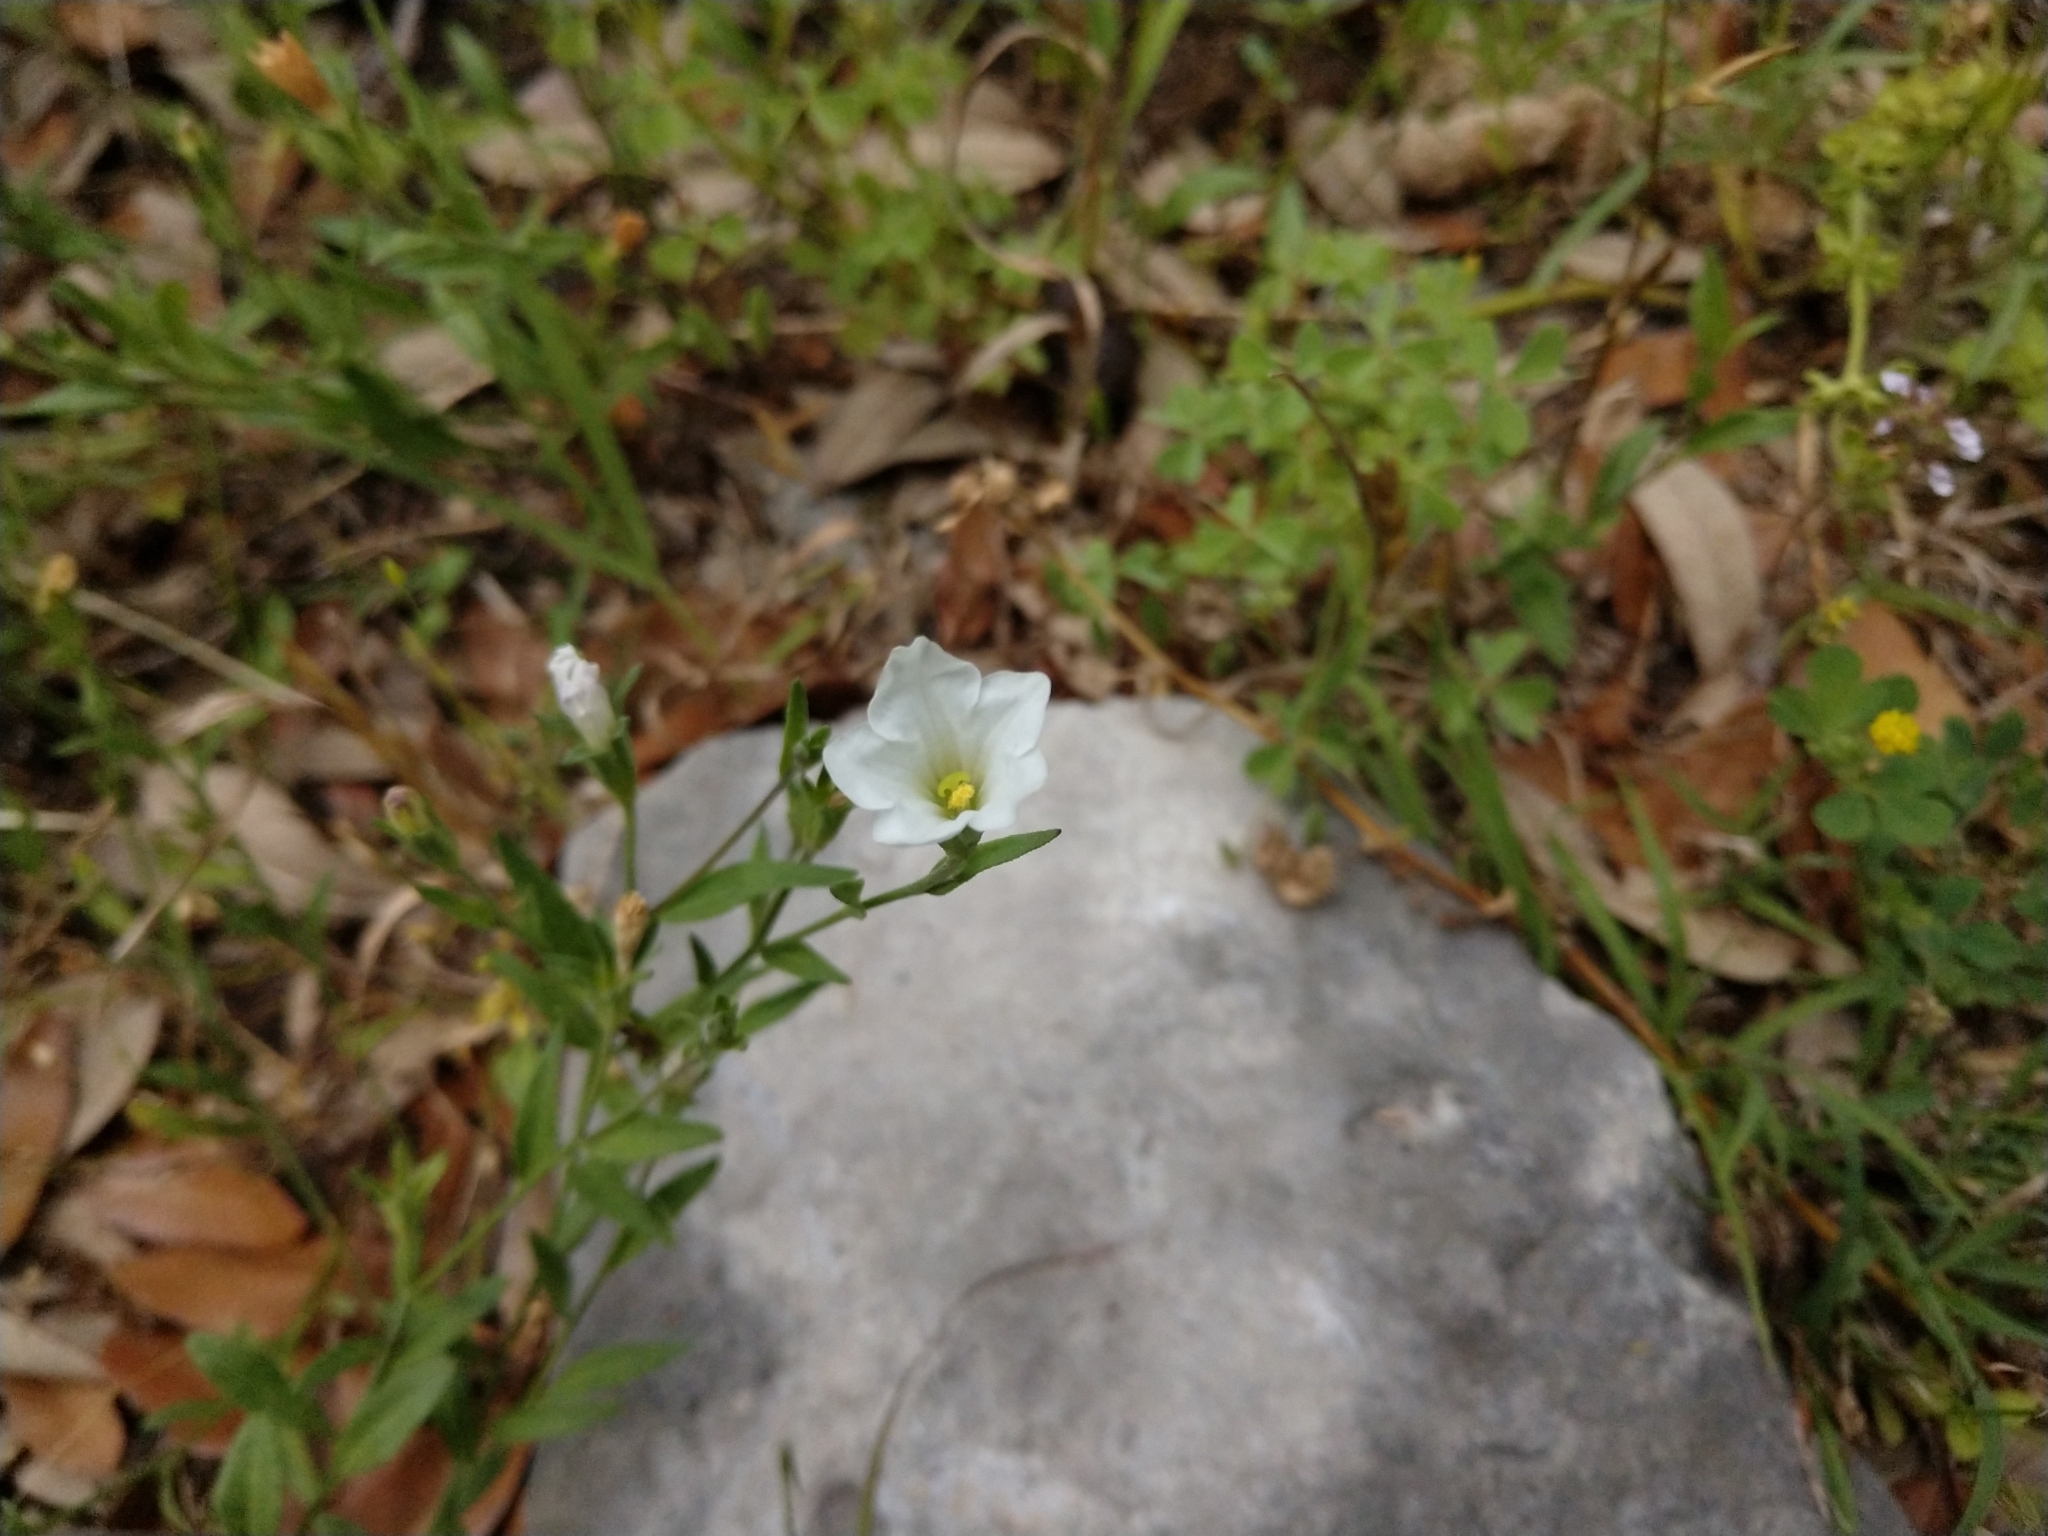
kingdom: Plantae
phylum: Tracheophyta
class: Magnoliopsida
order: Solanales
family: Solanaceae
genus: Salpiglossis
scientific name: Salpiglossis erecta
